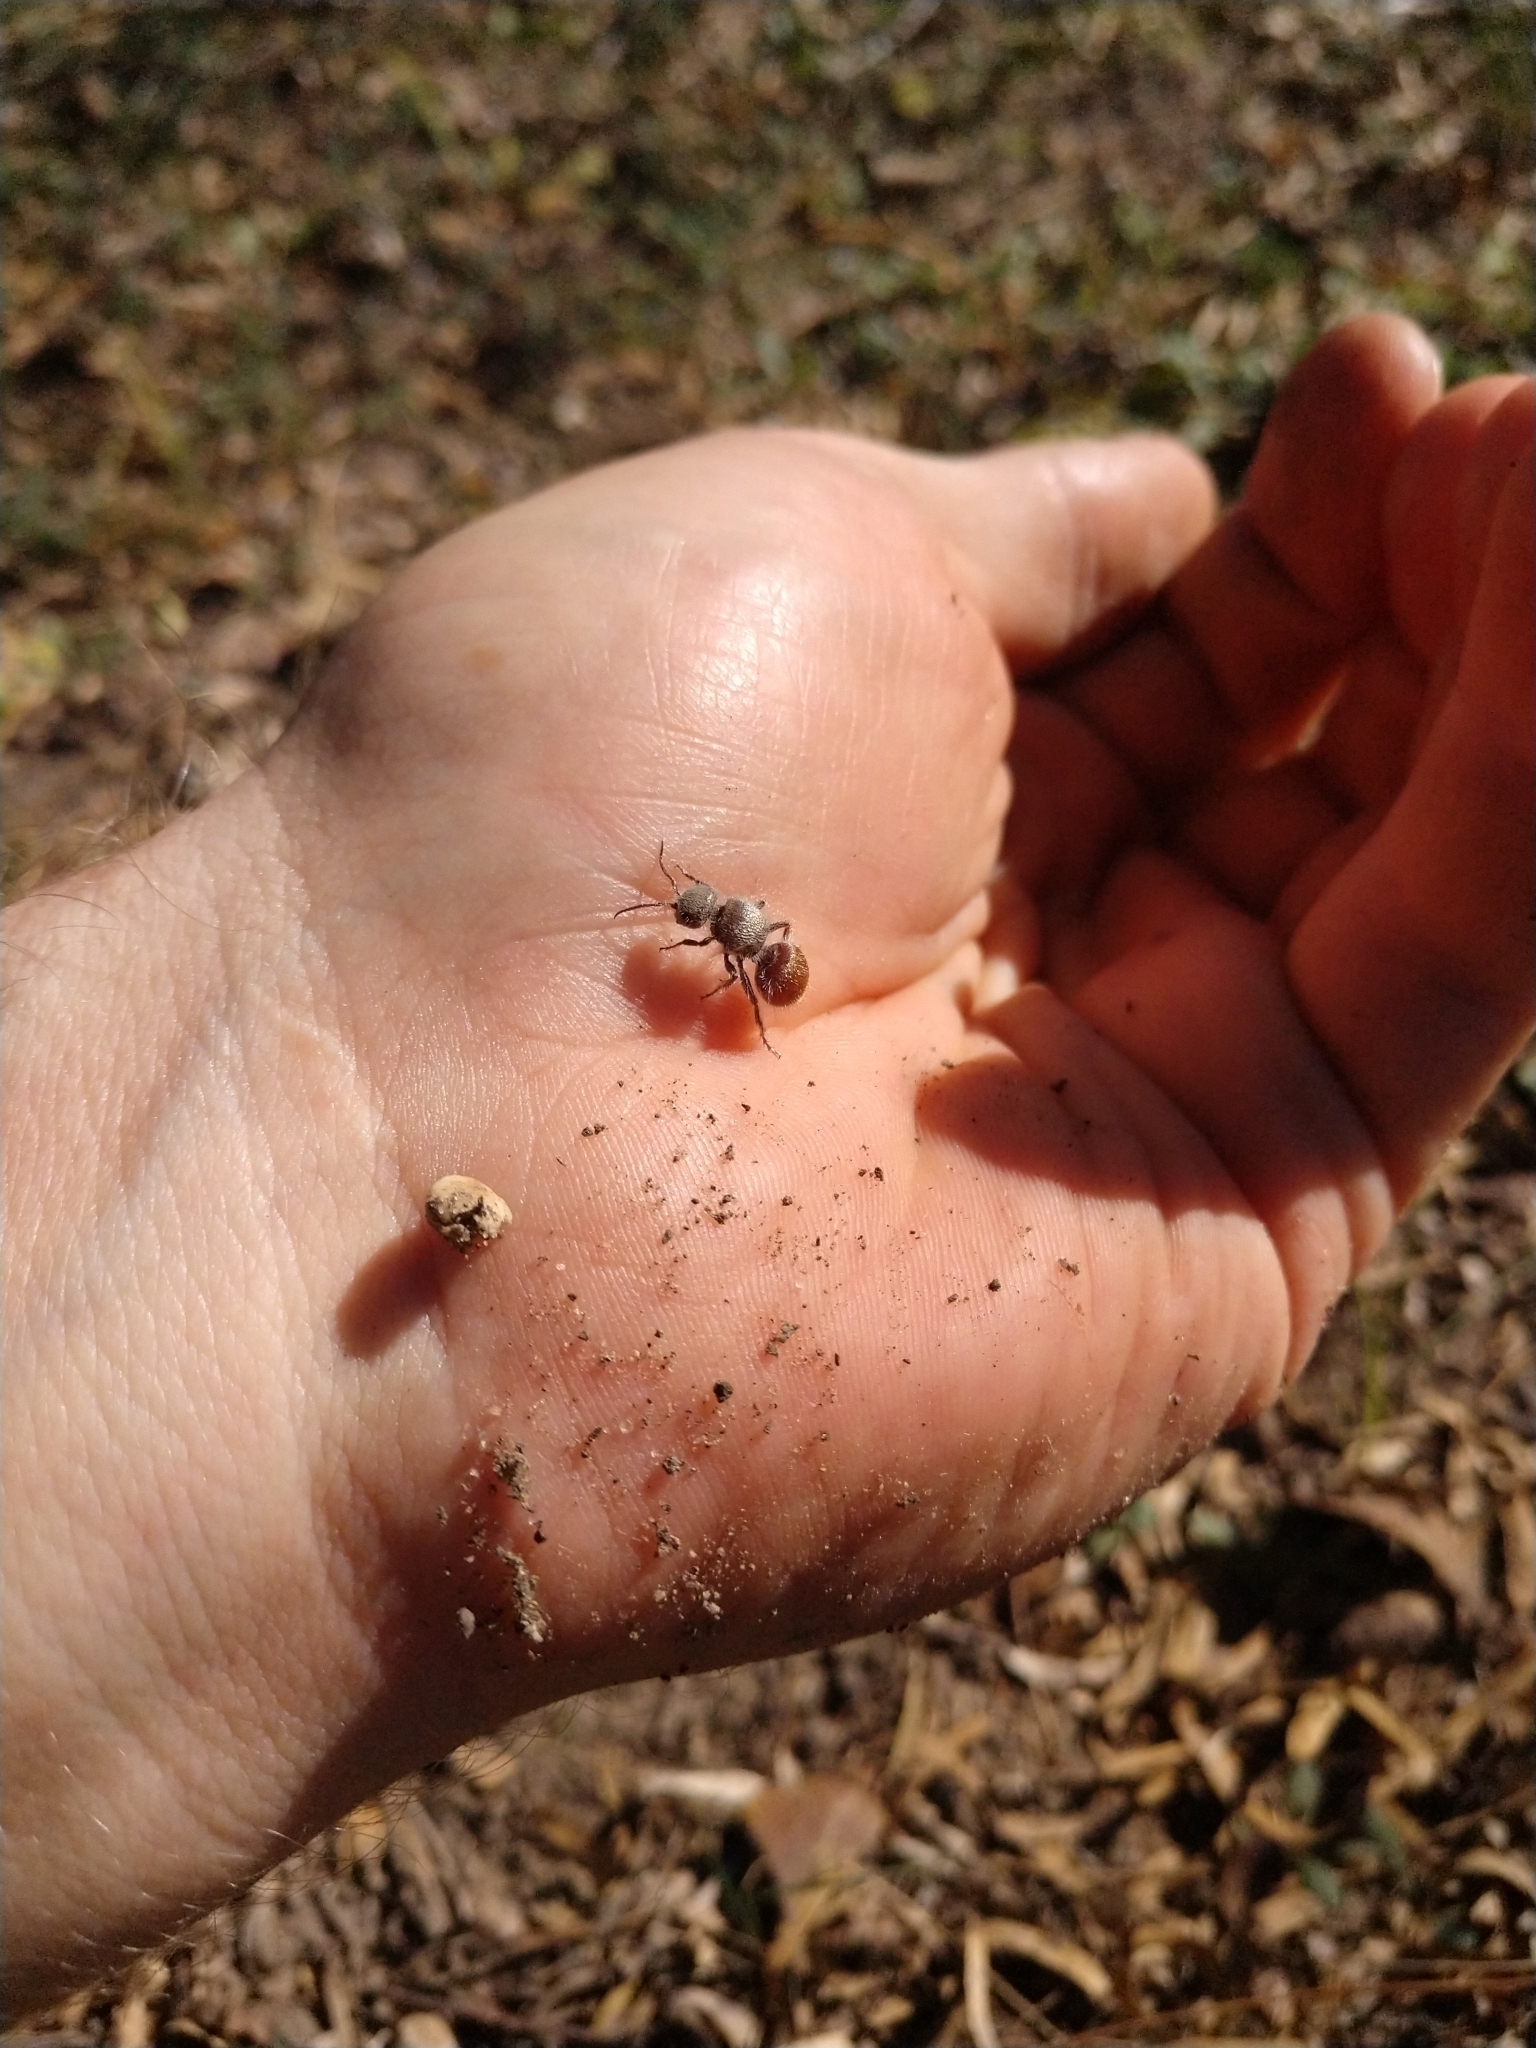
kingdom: Animalia
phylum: Arthropoda
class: Insecta
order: Hymenoptera
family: Mutillidae
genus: Dasymutilla
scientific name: Dasymutilla foxi
